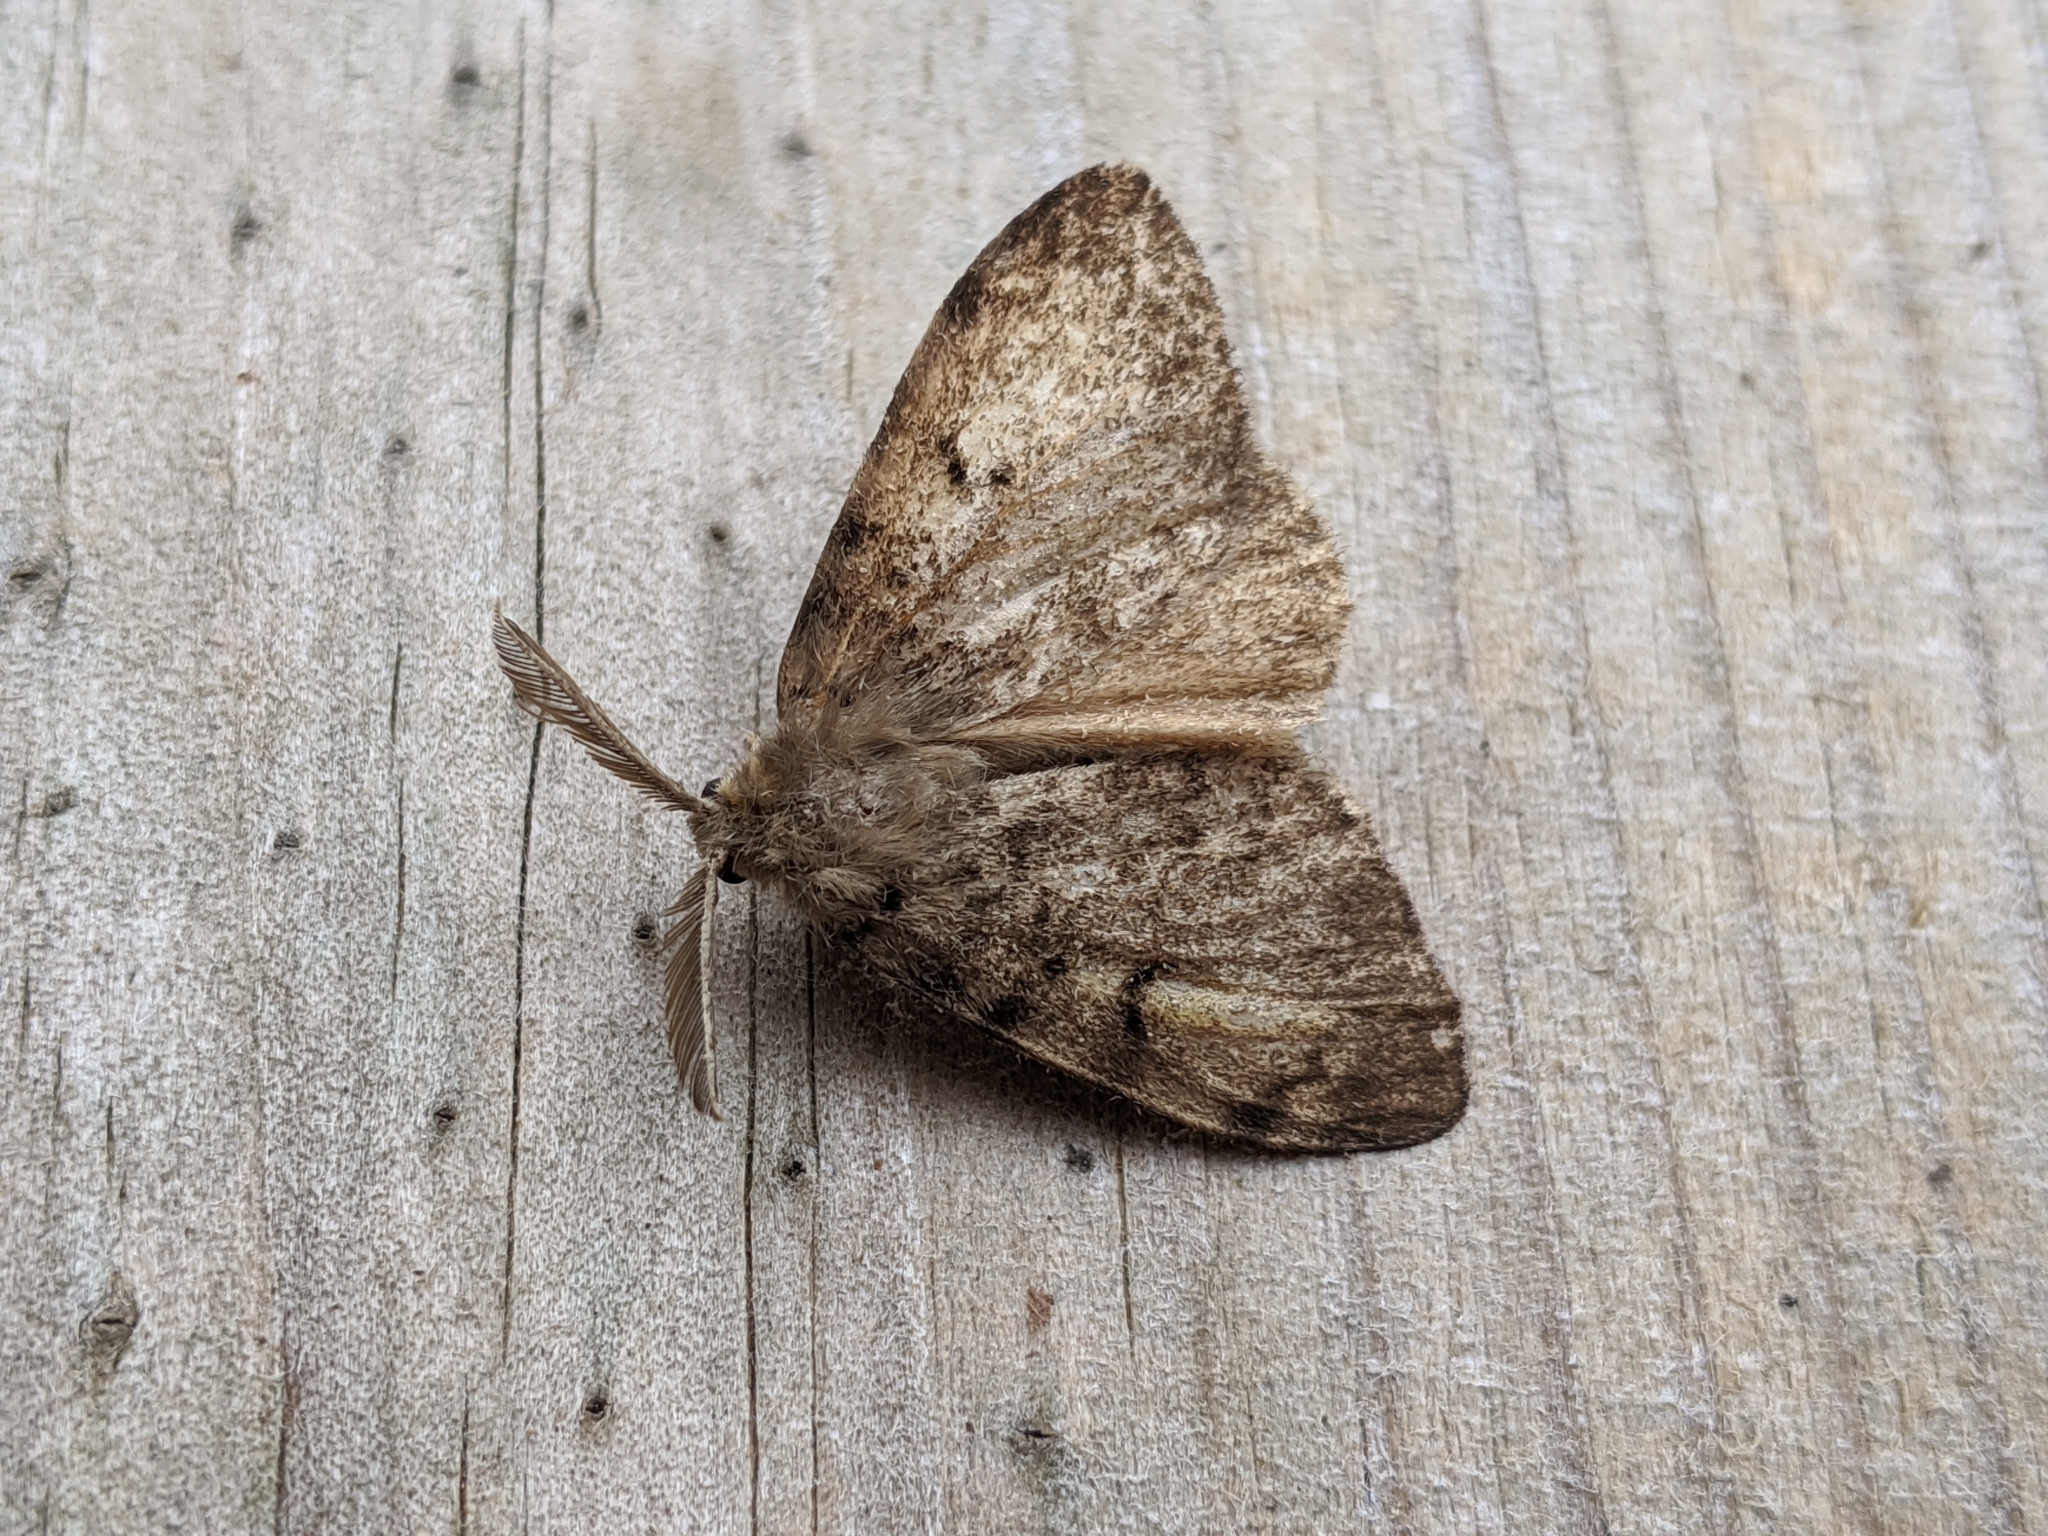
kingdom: Animalia
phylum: Arthropoda
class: Insecta
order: Lepidoptera
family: Erebidae
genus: Lymantria
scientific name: Lymantria dispar
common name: Gypsy moth
